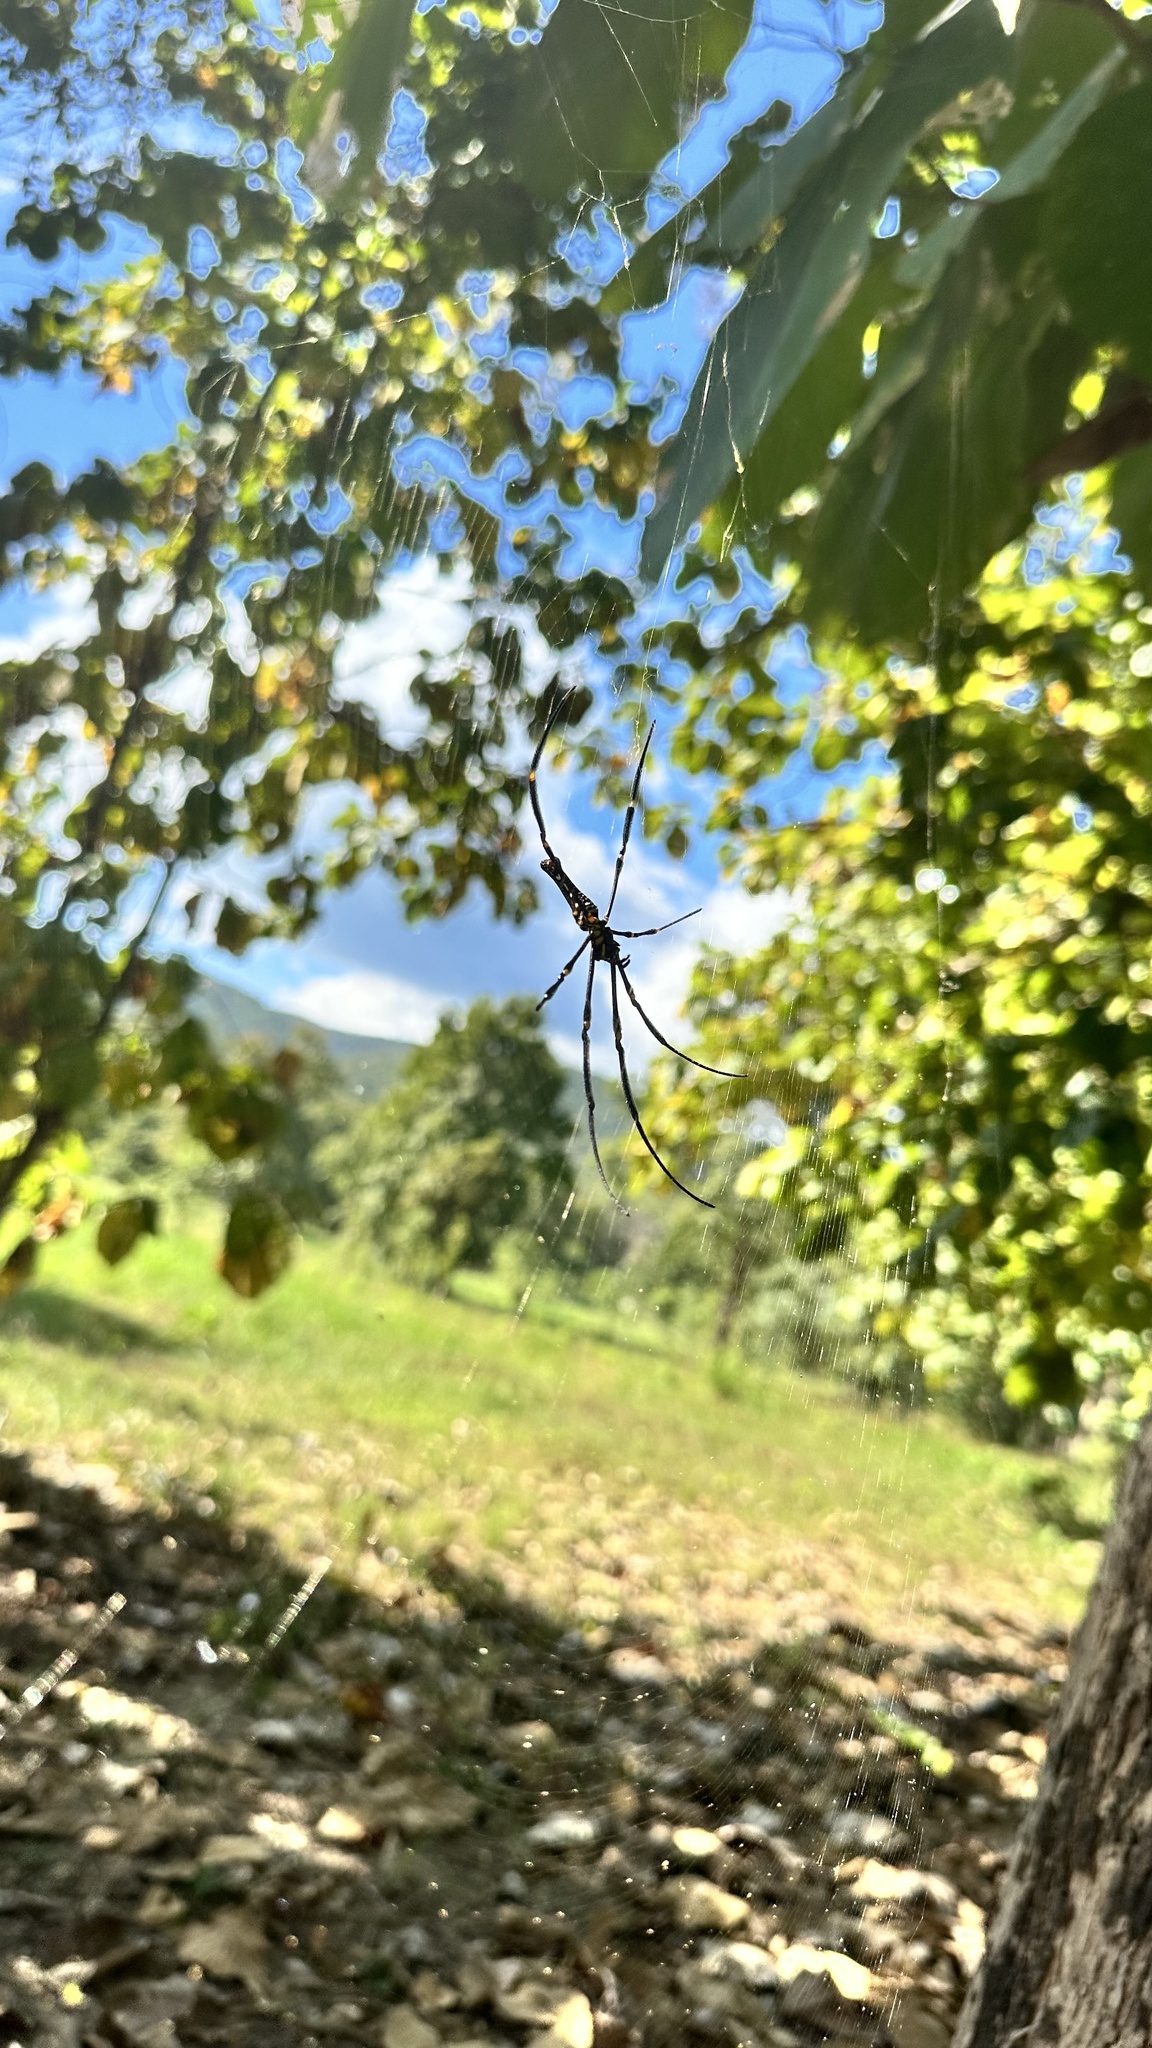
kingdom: Animalia
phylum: Arthropoda
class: Arachnida
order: Araneae
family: Araneidae
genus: Nephila
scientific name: Nephila pilipes
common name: Giant golden orb weaver
